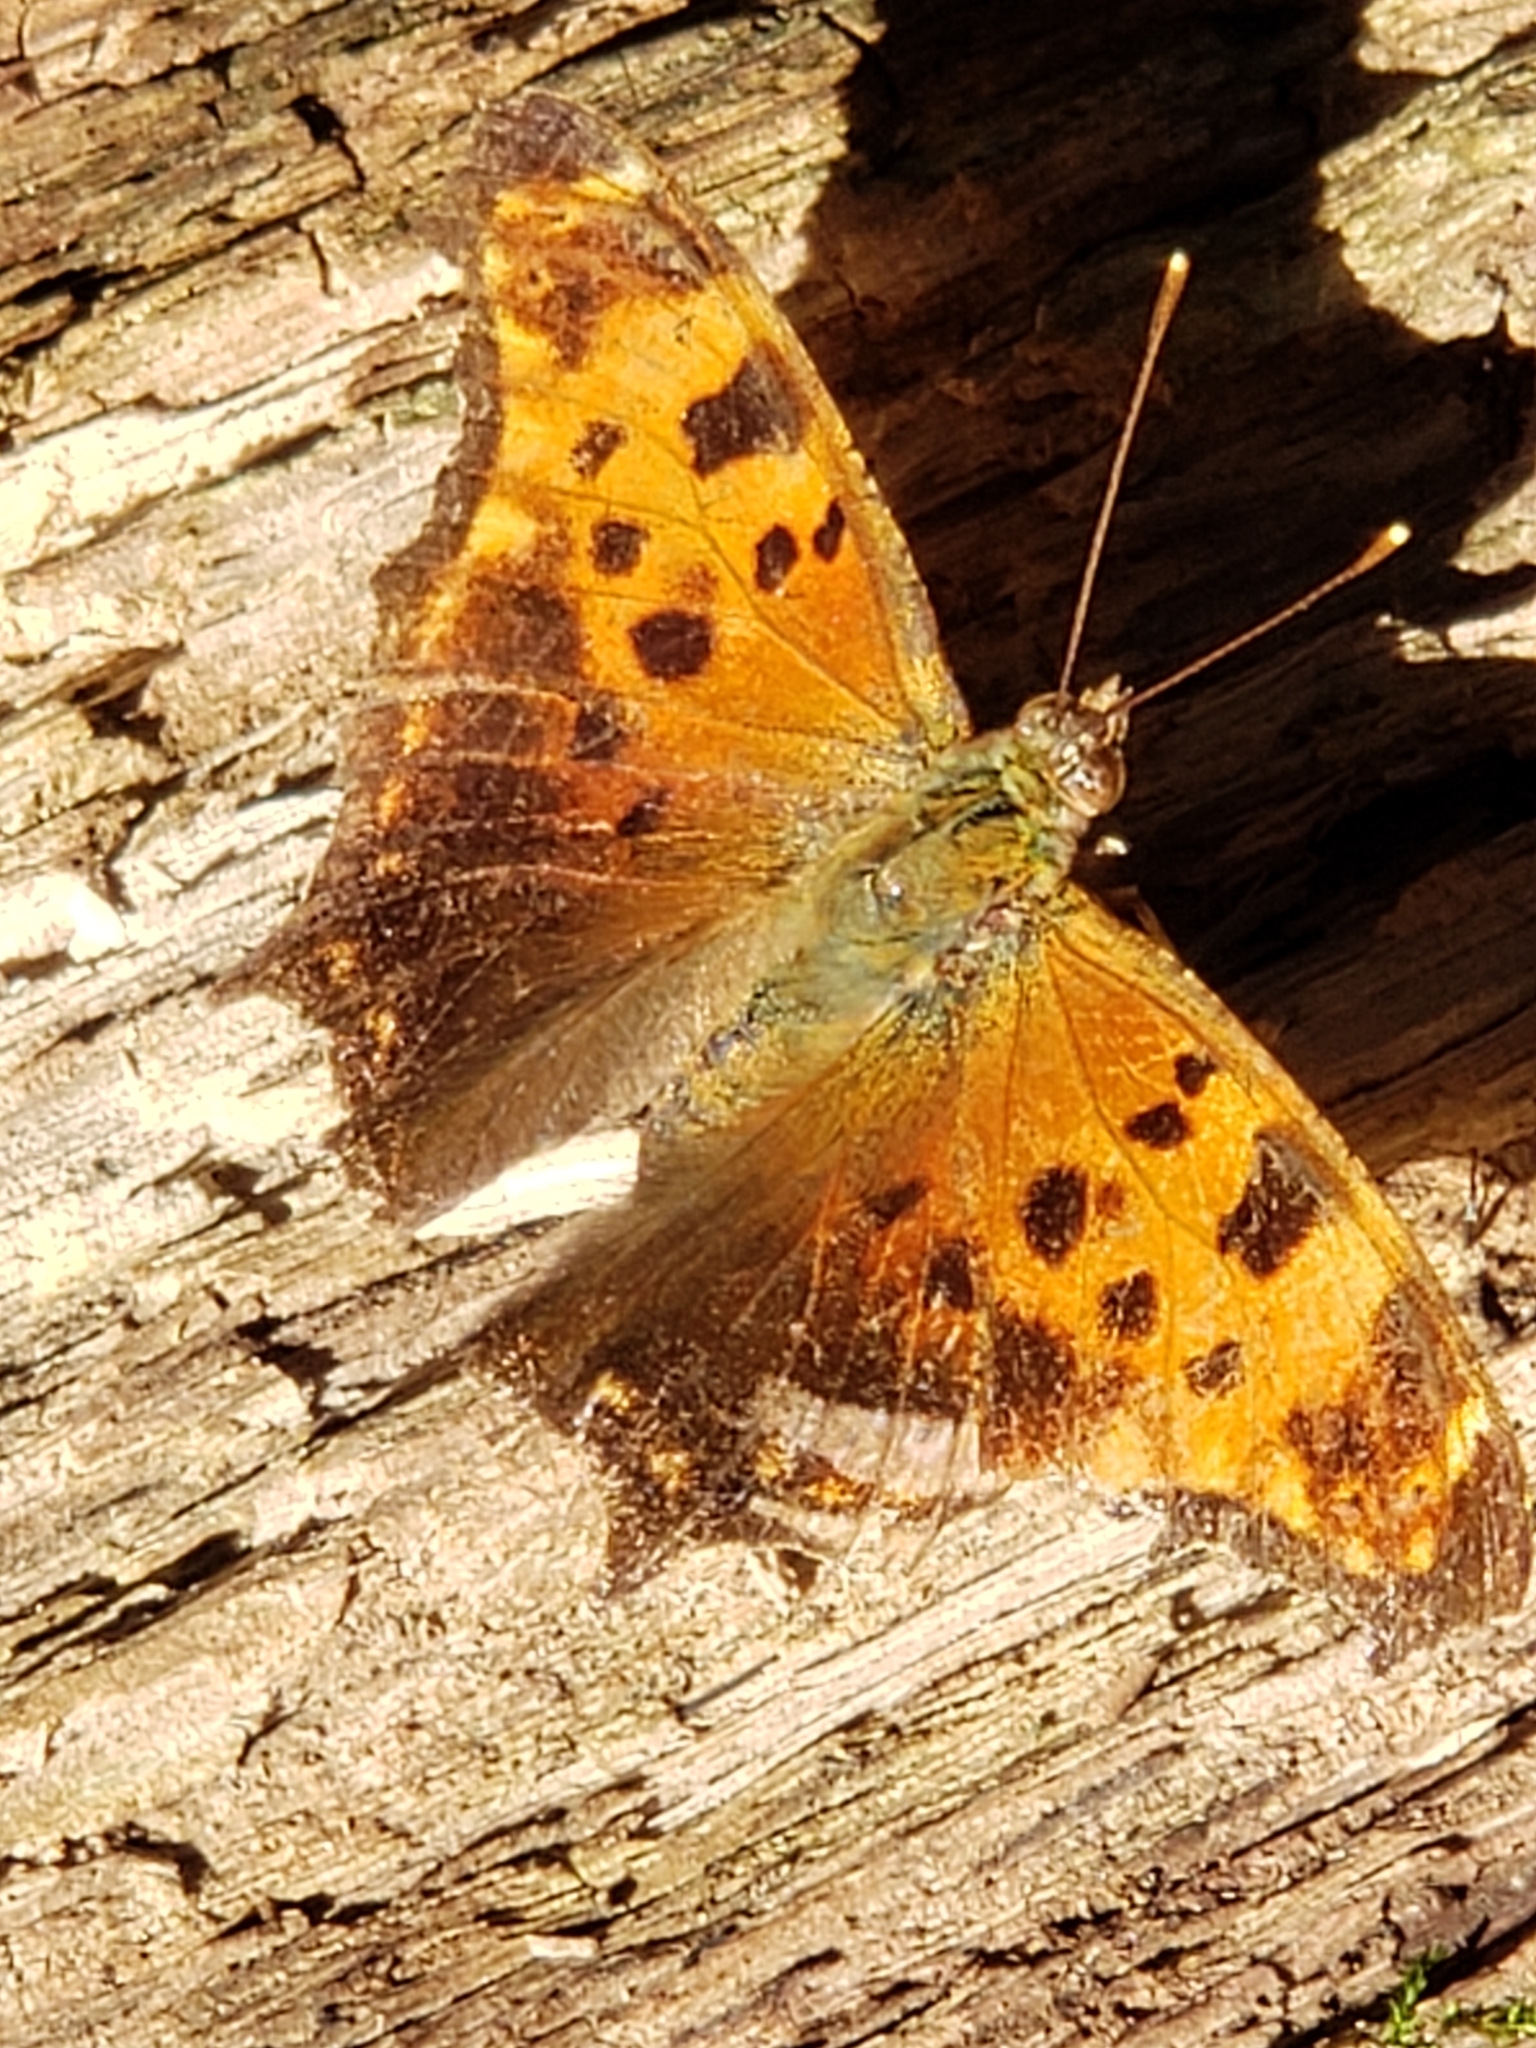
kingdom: Animalia
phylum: Arthropoda
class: Insecta
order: Lepidoptera
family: Nymphalidae
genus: Polygonia
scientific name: Polygonia comma
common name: Eastern comma
